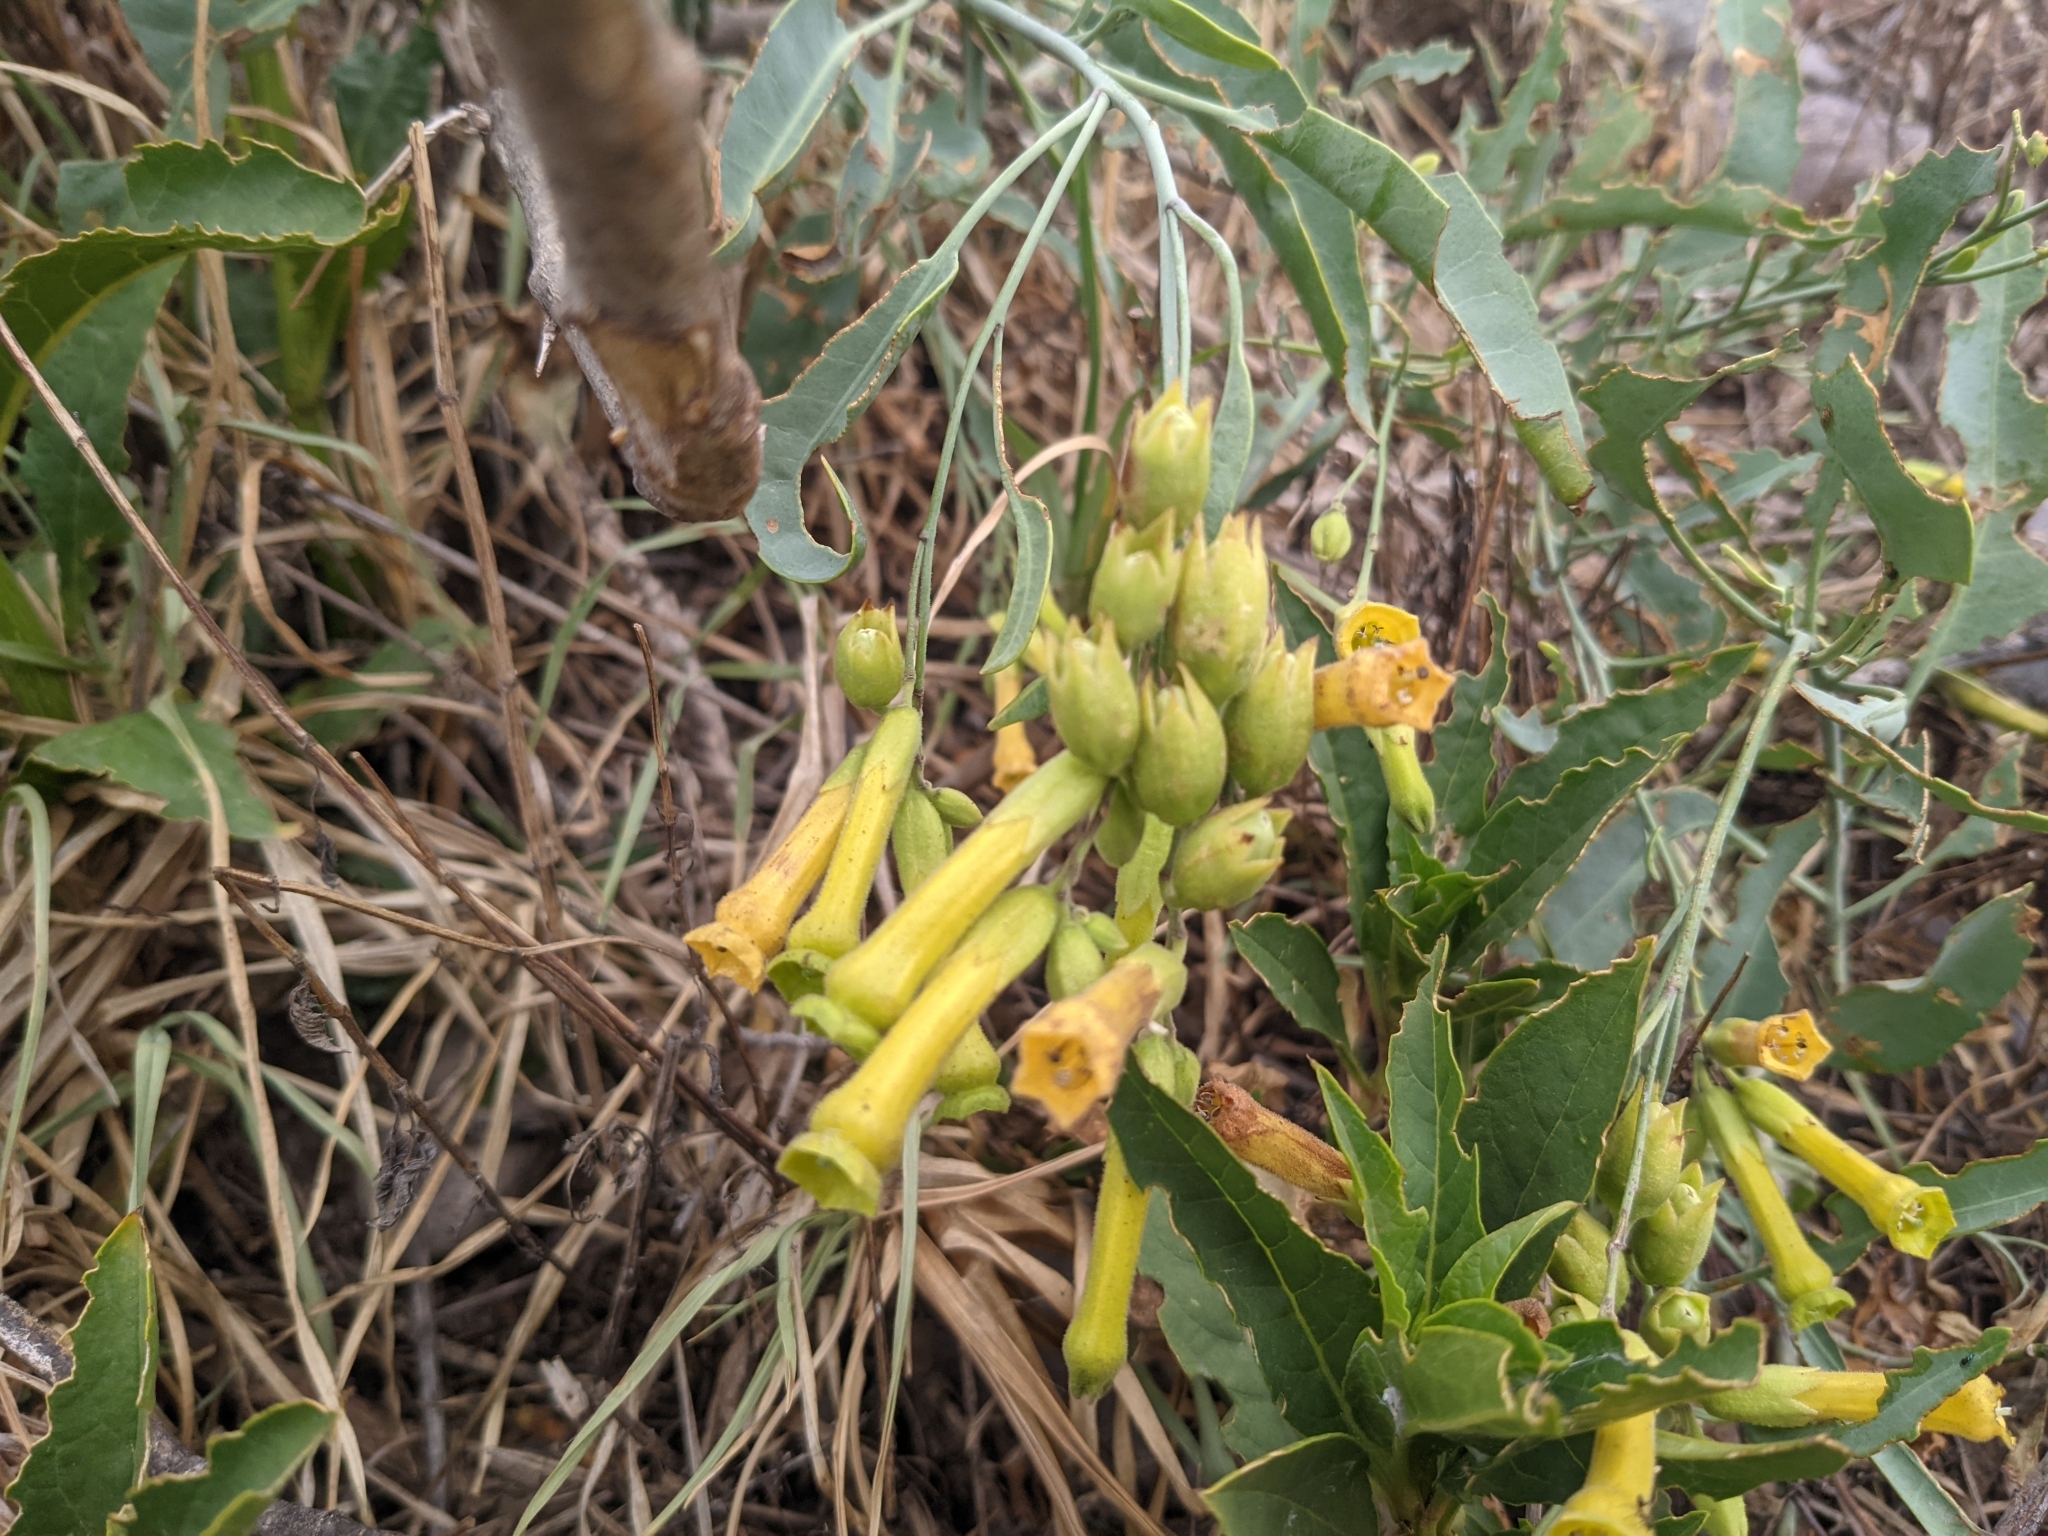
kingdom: Plantae
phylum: Tracheophyta
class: Magnoliopsida
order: Solanales
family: Solanaceae
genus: Nicotiana
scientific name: Nicotiana glauca
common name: Tree tobacco
